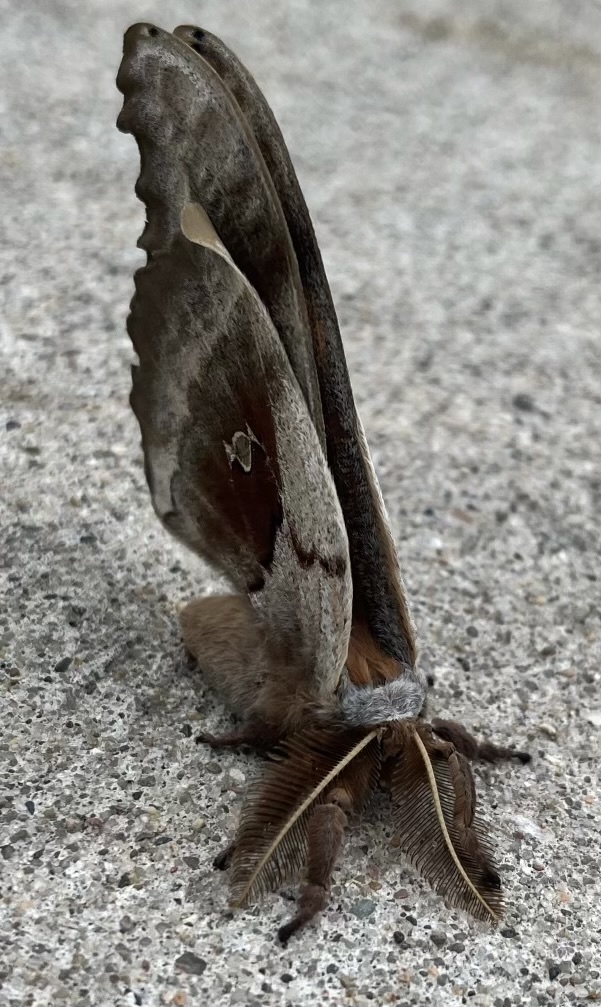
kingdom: Animalia
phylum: Arthropoda
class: Insecta
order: Lepidoptera
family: Saturniidae
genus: Antheraea
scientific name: Antheraea polyphemus
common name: Polyphemus moth
